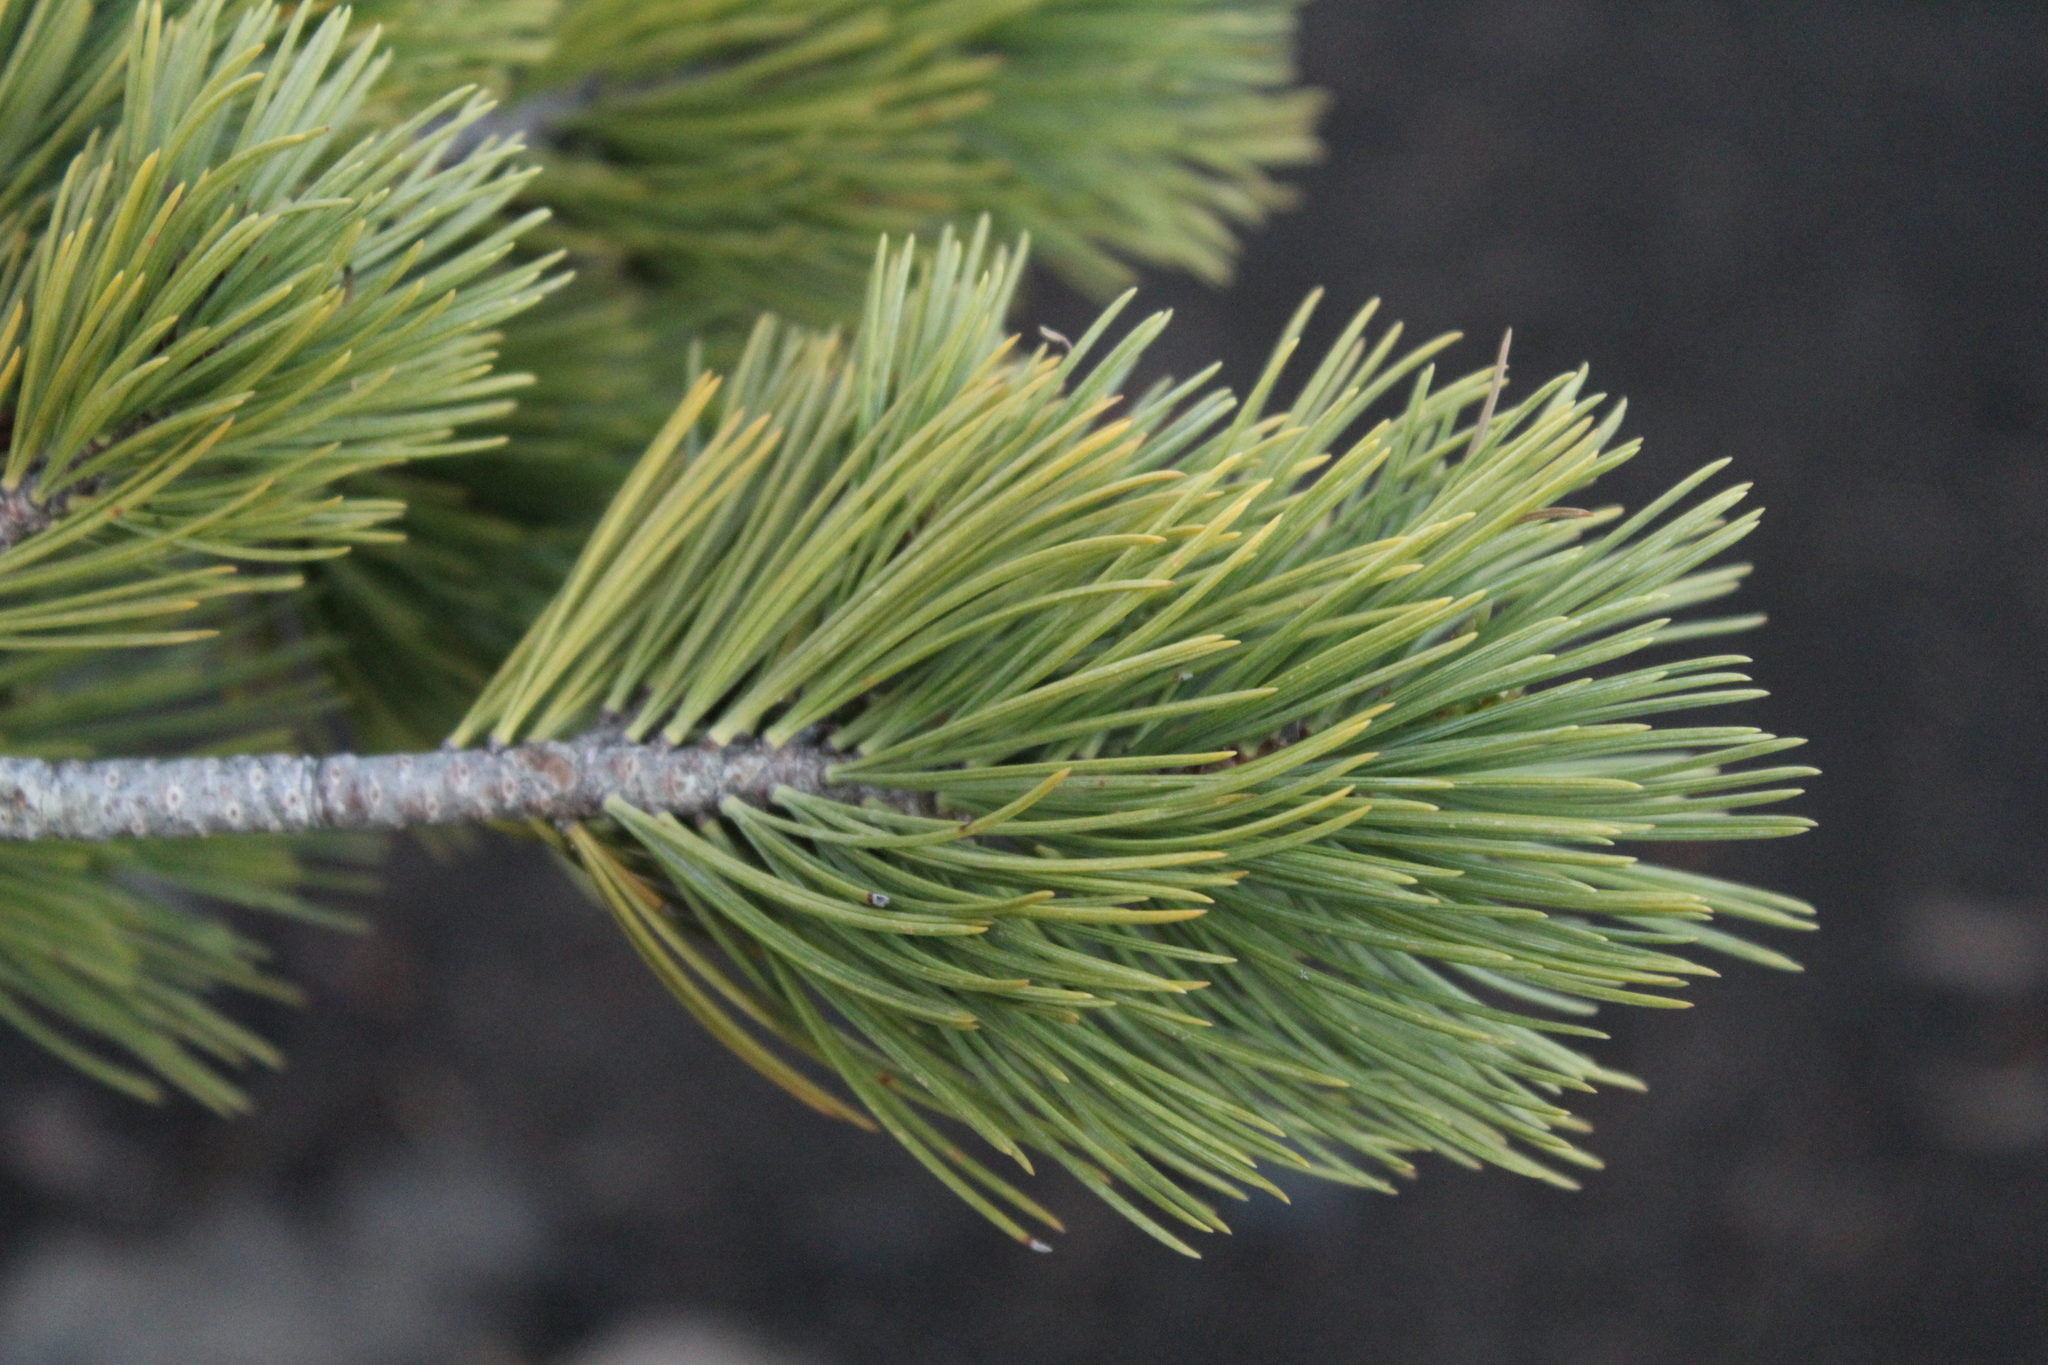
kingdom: Plantae
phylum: Tracheophyta
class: Pinopsida
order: Pinales
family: Pinaceae
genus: Pinus
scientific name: Pinus flexilis
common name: Limber pine
